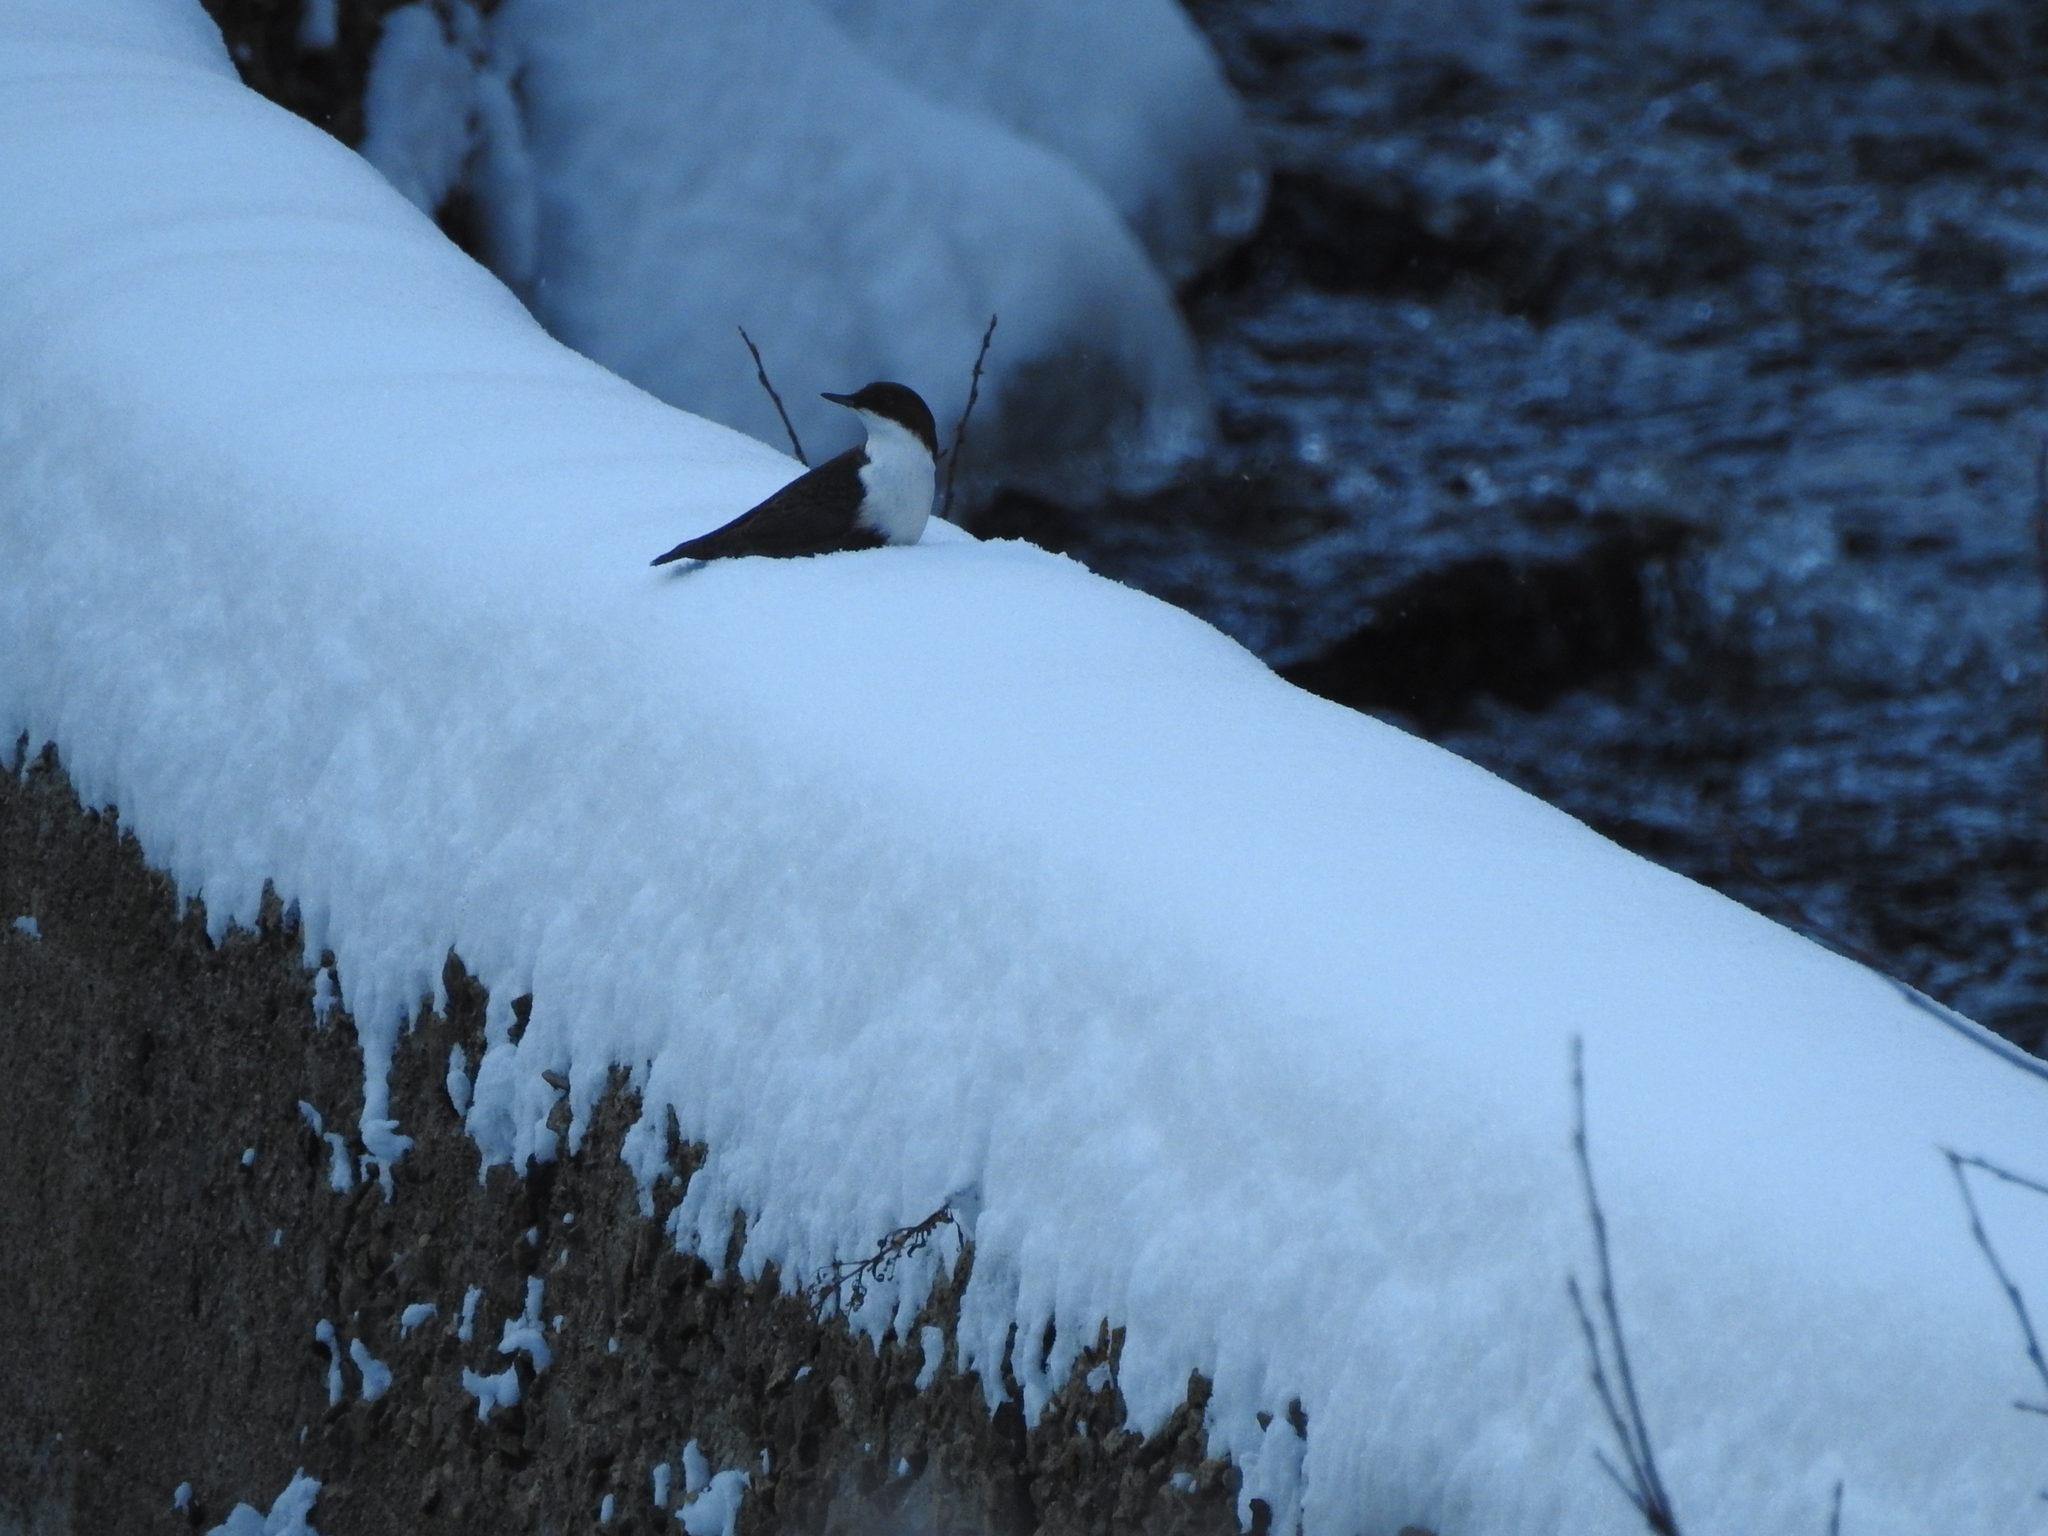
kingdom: Animalia
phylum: Chordata
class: Aves
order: Passeriformes
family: Cinclidae
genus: Cinclus
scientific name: Cinclus cinclus
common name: White-throated dipper
